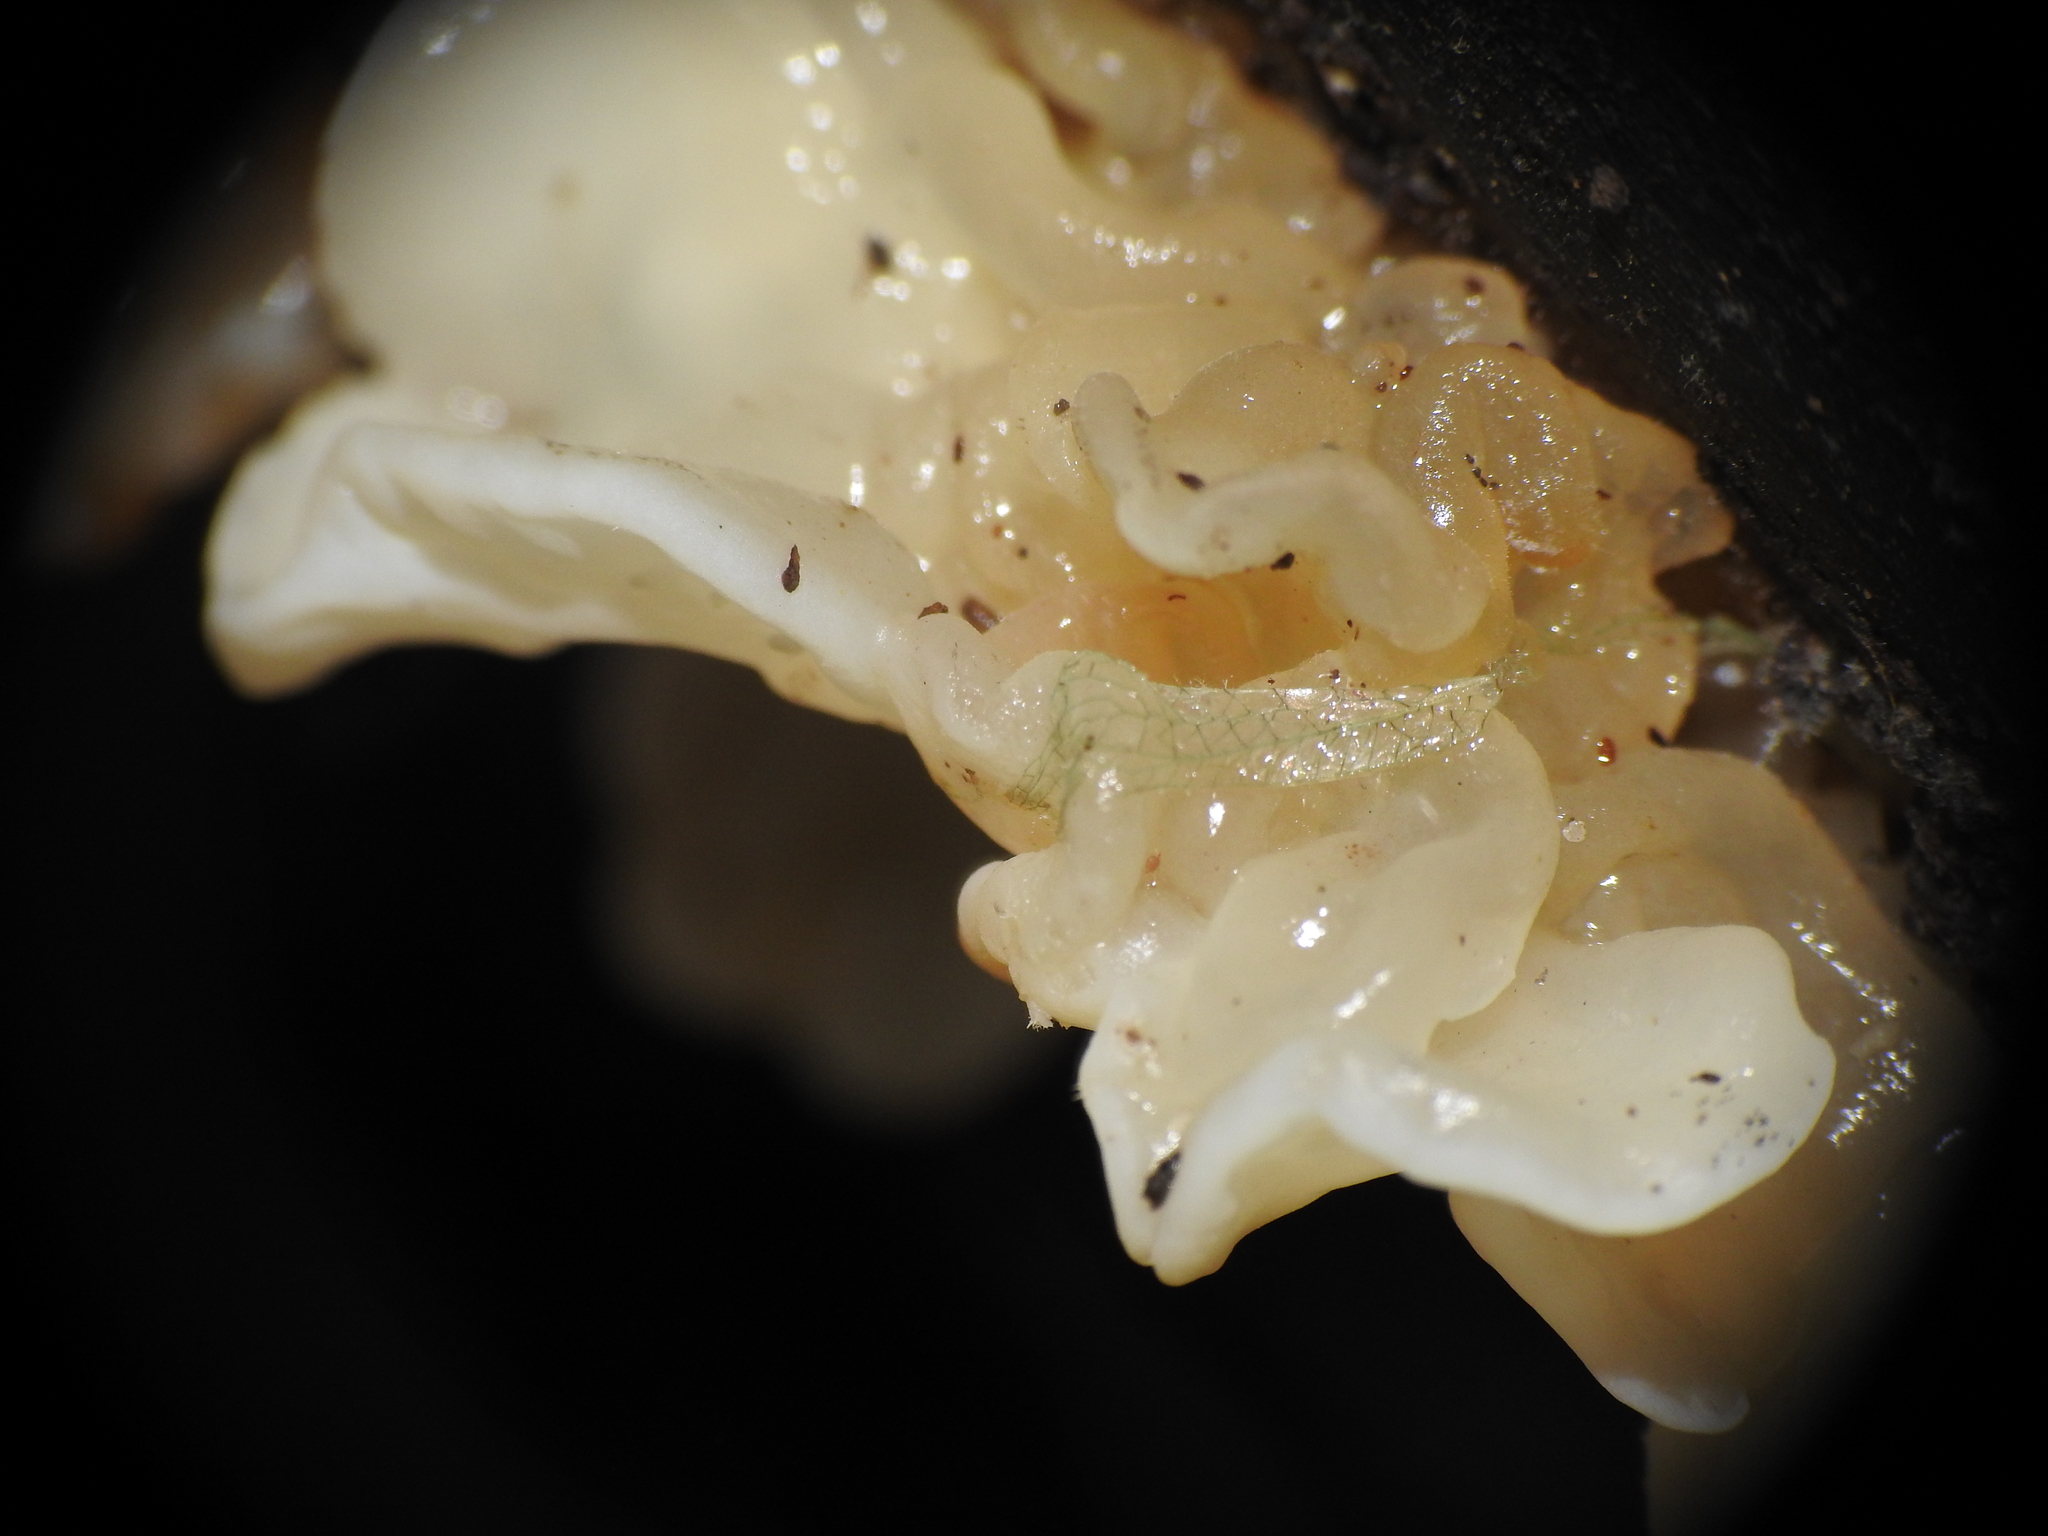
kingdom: Fungi
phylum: Basidiomycota
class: Agaricomycetes
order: Auriculariales
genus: Ductifera
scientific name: Ductifera pululahuana
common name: White jelly fungus
